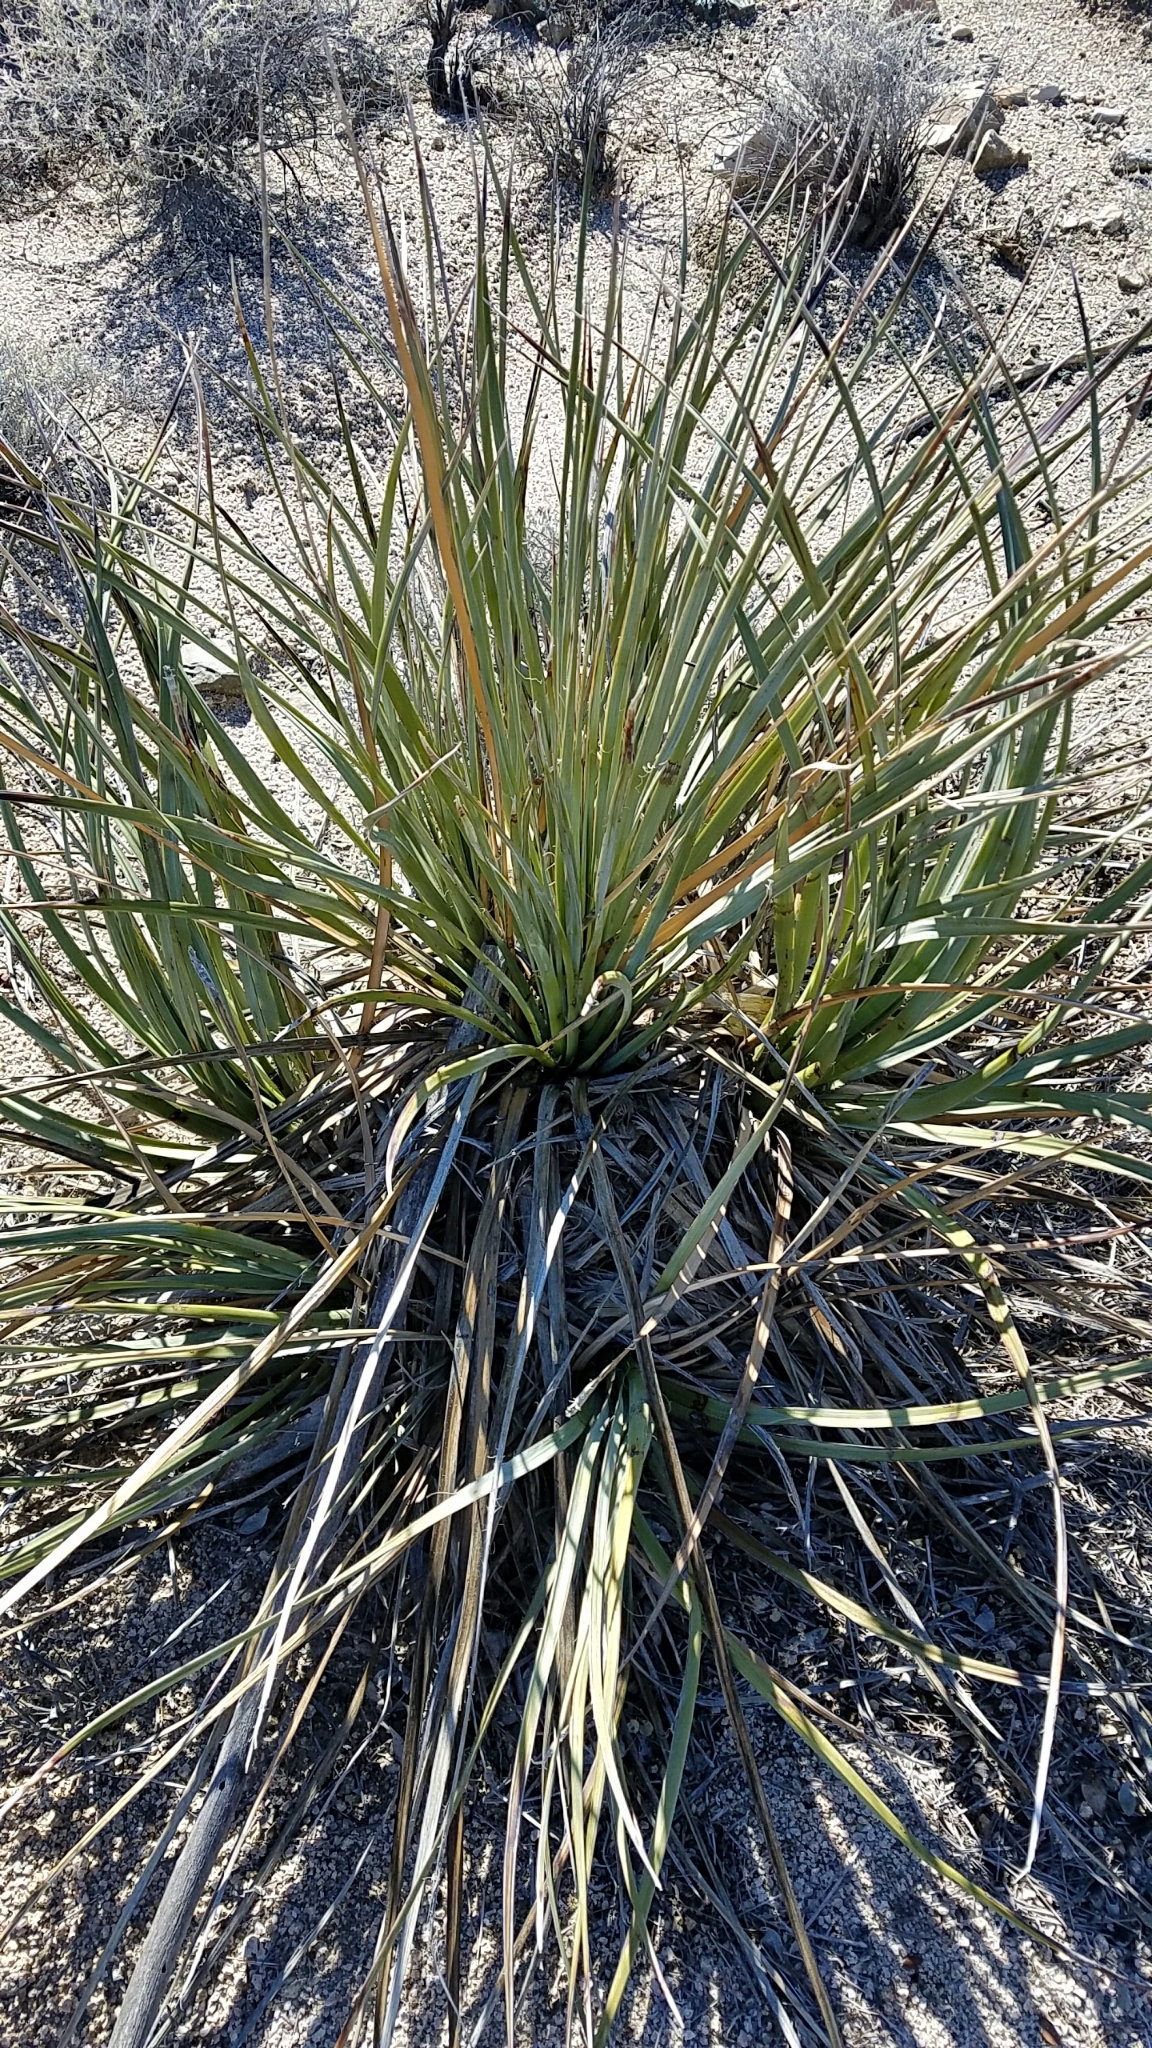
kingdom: Plantae
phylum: Tracheophyta
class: Liliopsida
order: Asparagales
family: Asparagaceae
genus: Nolina
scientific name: Nolina bigelovii
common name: Bigelow bear-grass
